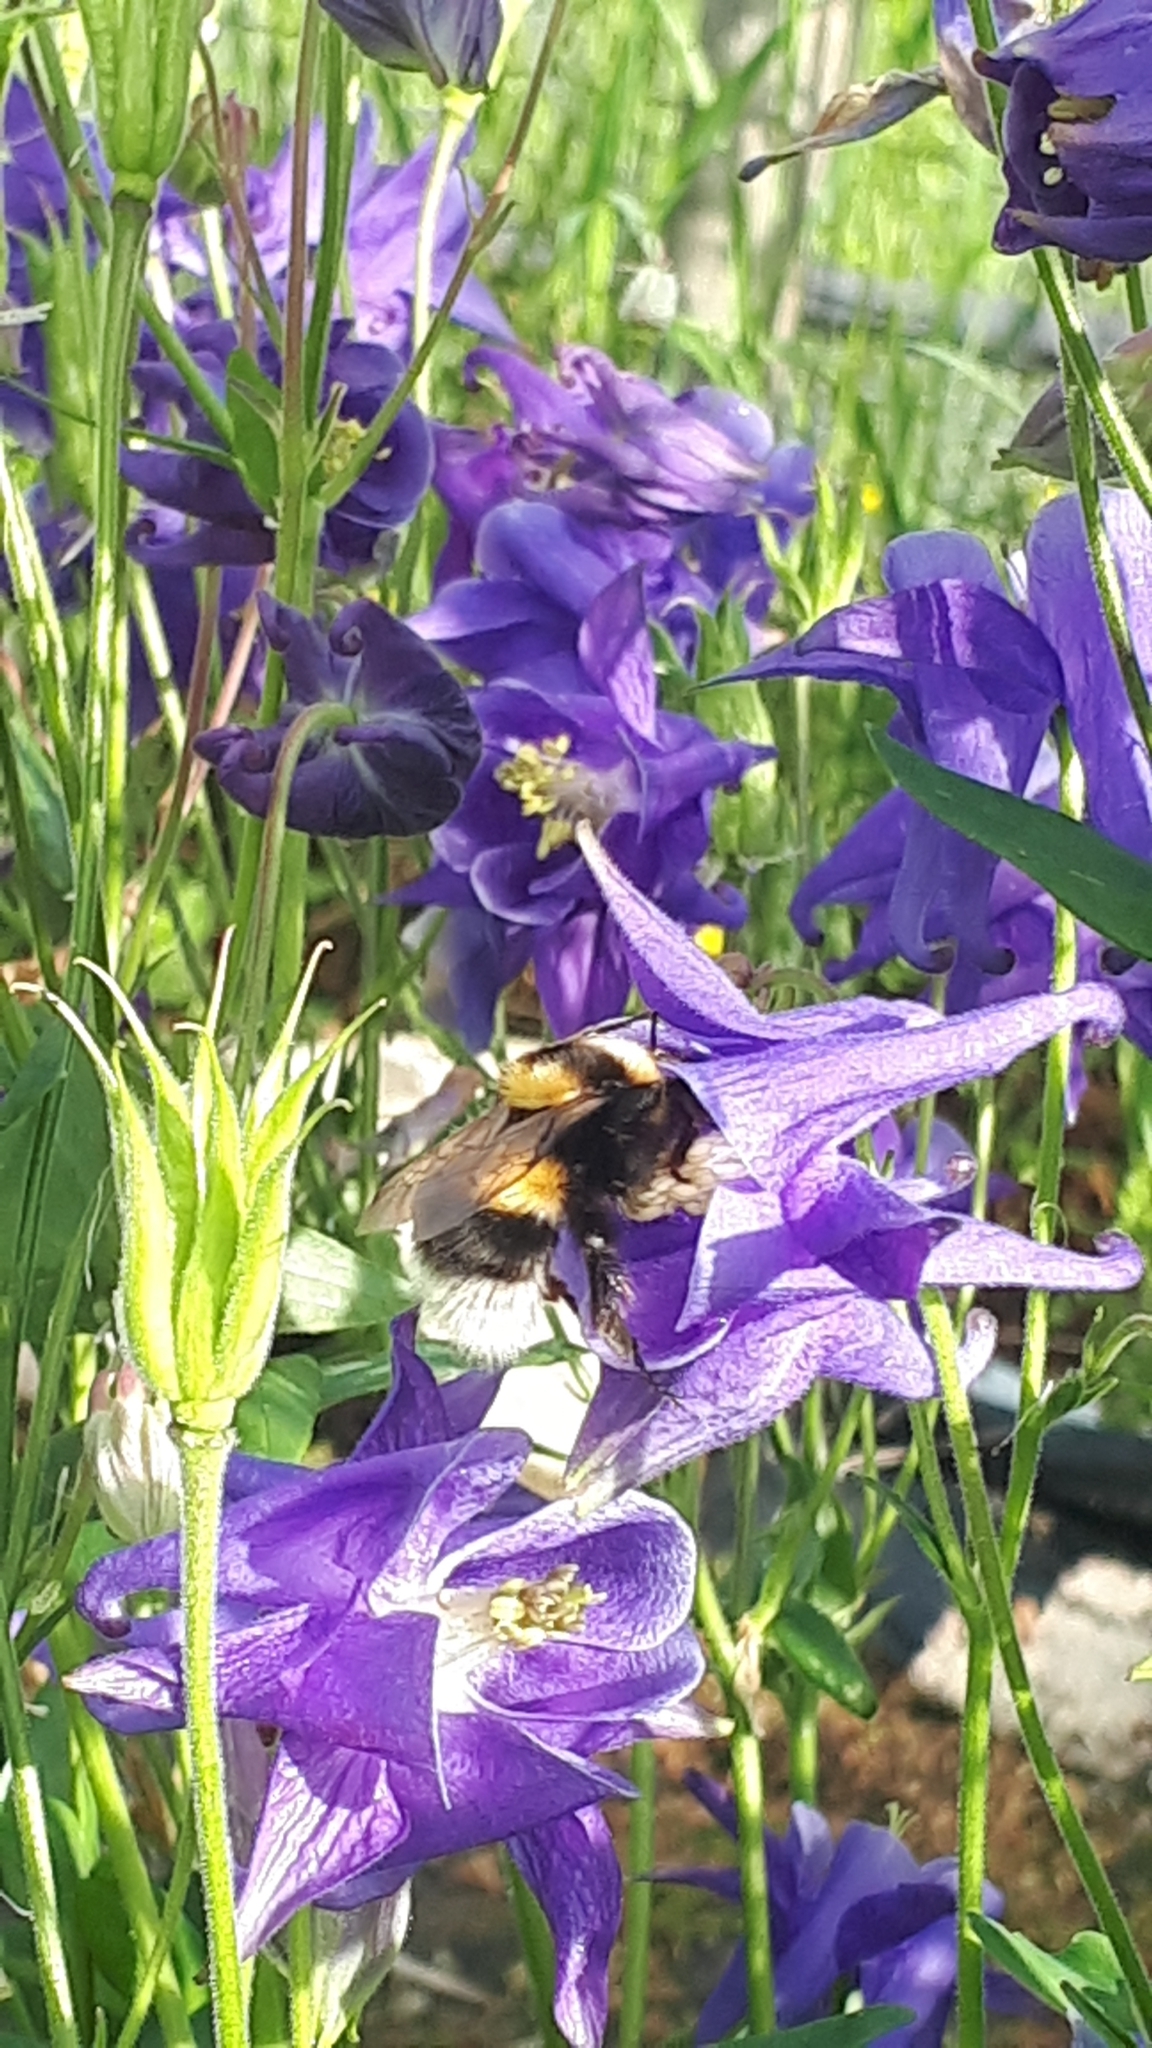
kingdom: Animalia
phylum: Arthropoda
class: Insecta
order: Hymenoptera
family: Apidae
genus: Bombus
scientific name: Bombus hortorum
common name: Garden bumblebee
